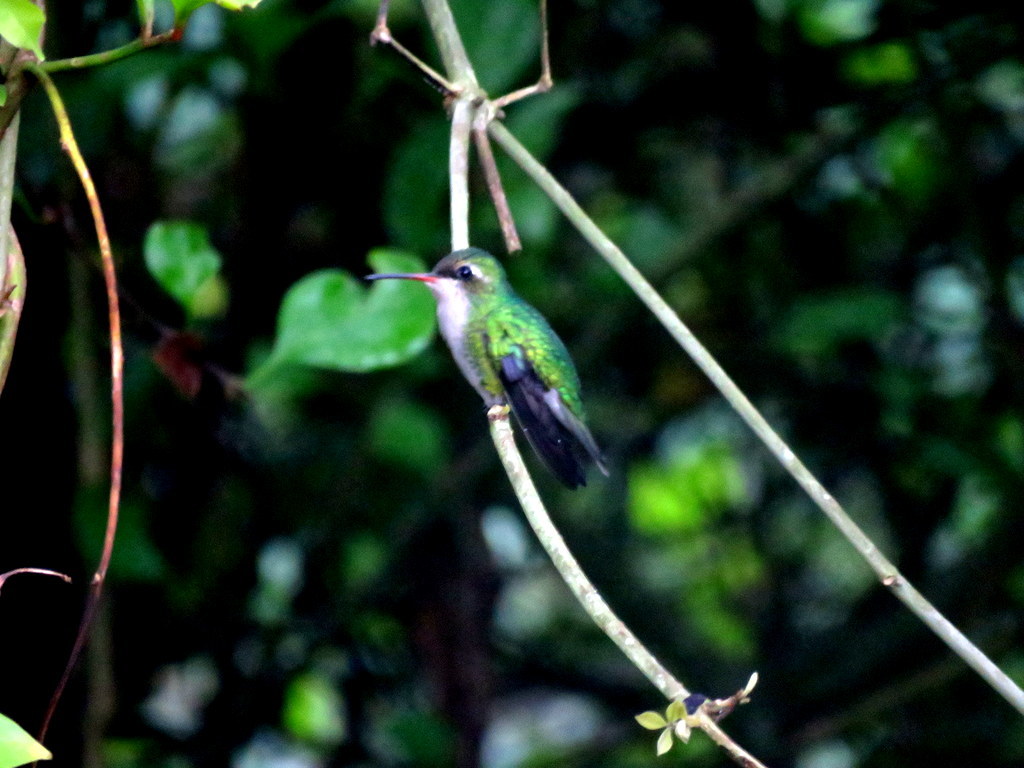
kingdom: Animalia
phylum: Chordata
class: Aves
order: Apodiformes
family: Trochilidae
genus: Chlorostilbon
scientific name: Chlorostilbon lucidus
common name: Glittering-bellied emerald
